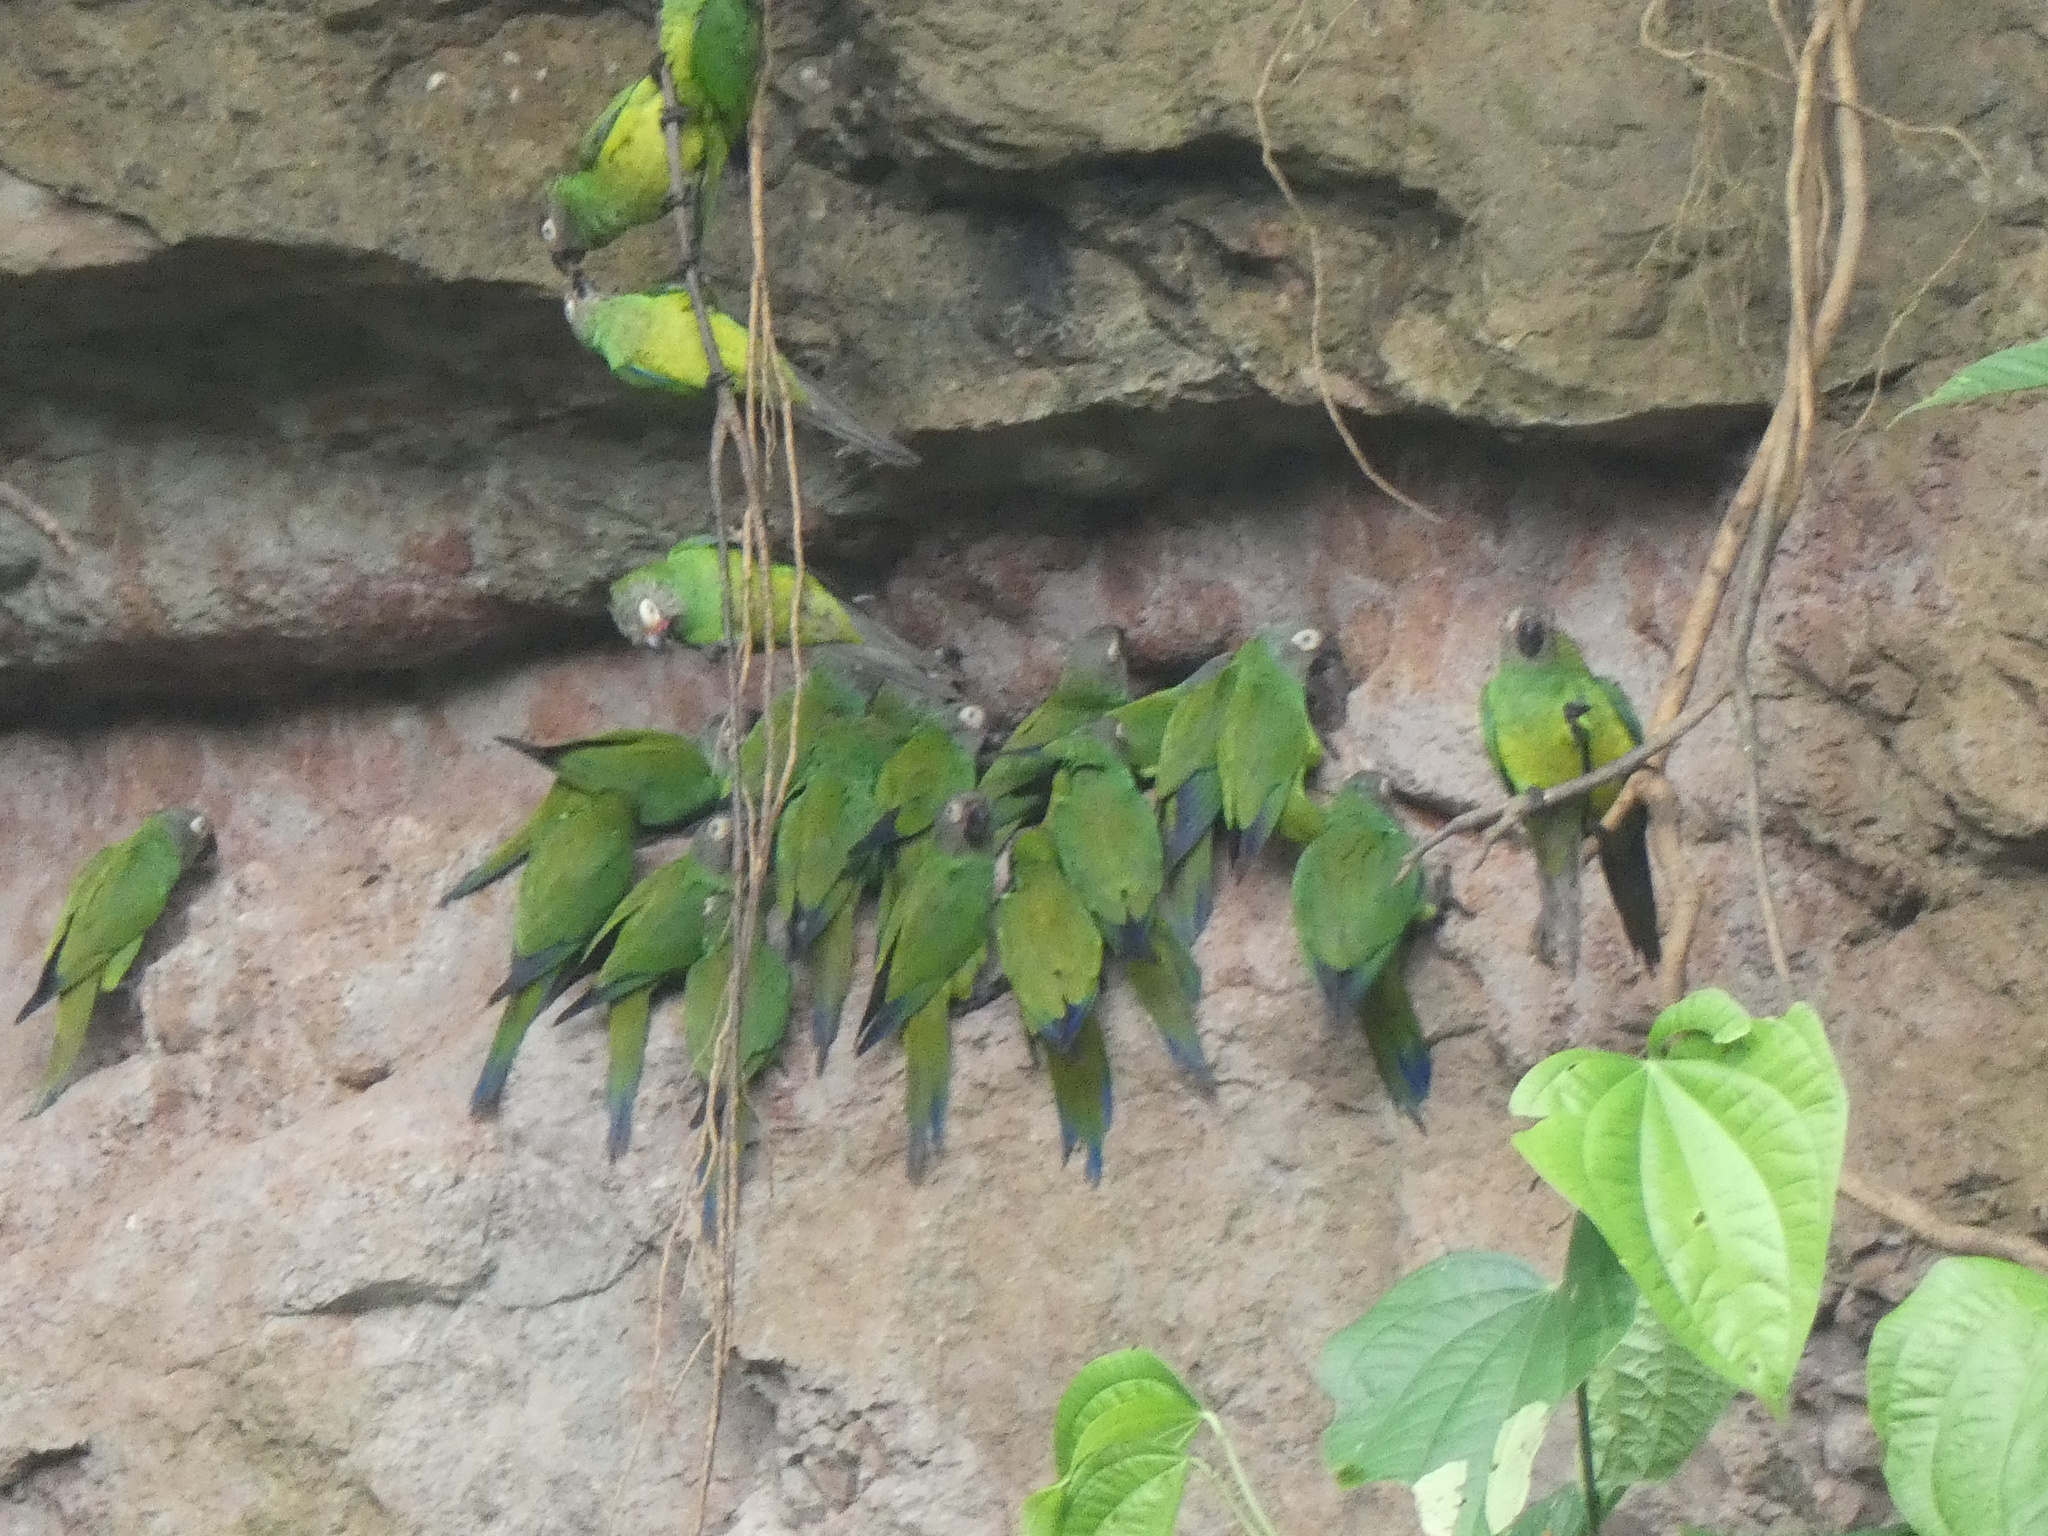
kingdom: Animalia
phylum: Chordata
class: Aves
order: Psittaciformes
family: Psittacidae
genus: Aratinga
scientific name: Aratinga weddellii
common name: Dusky-headed parakeet
